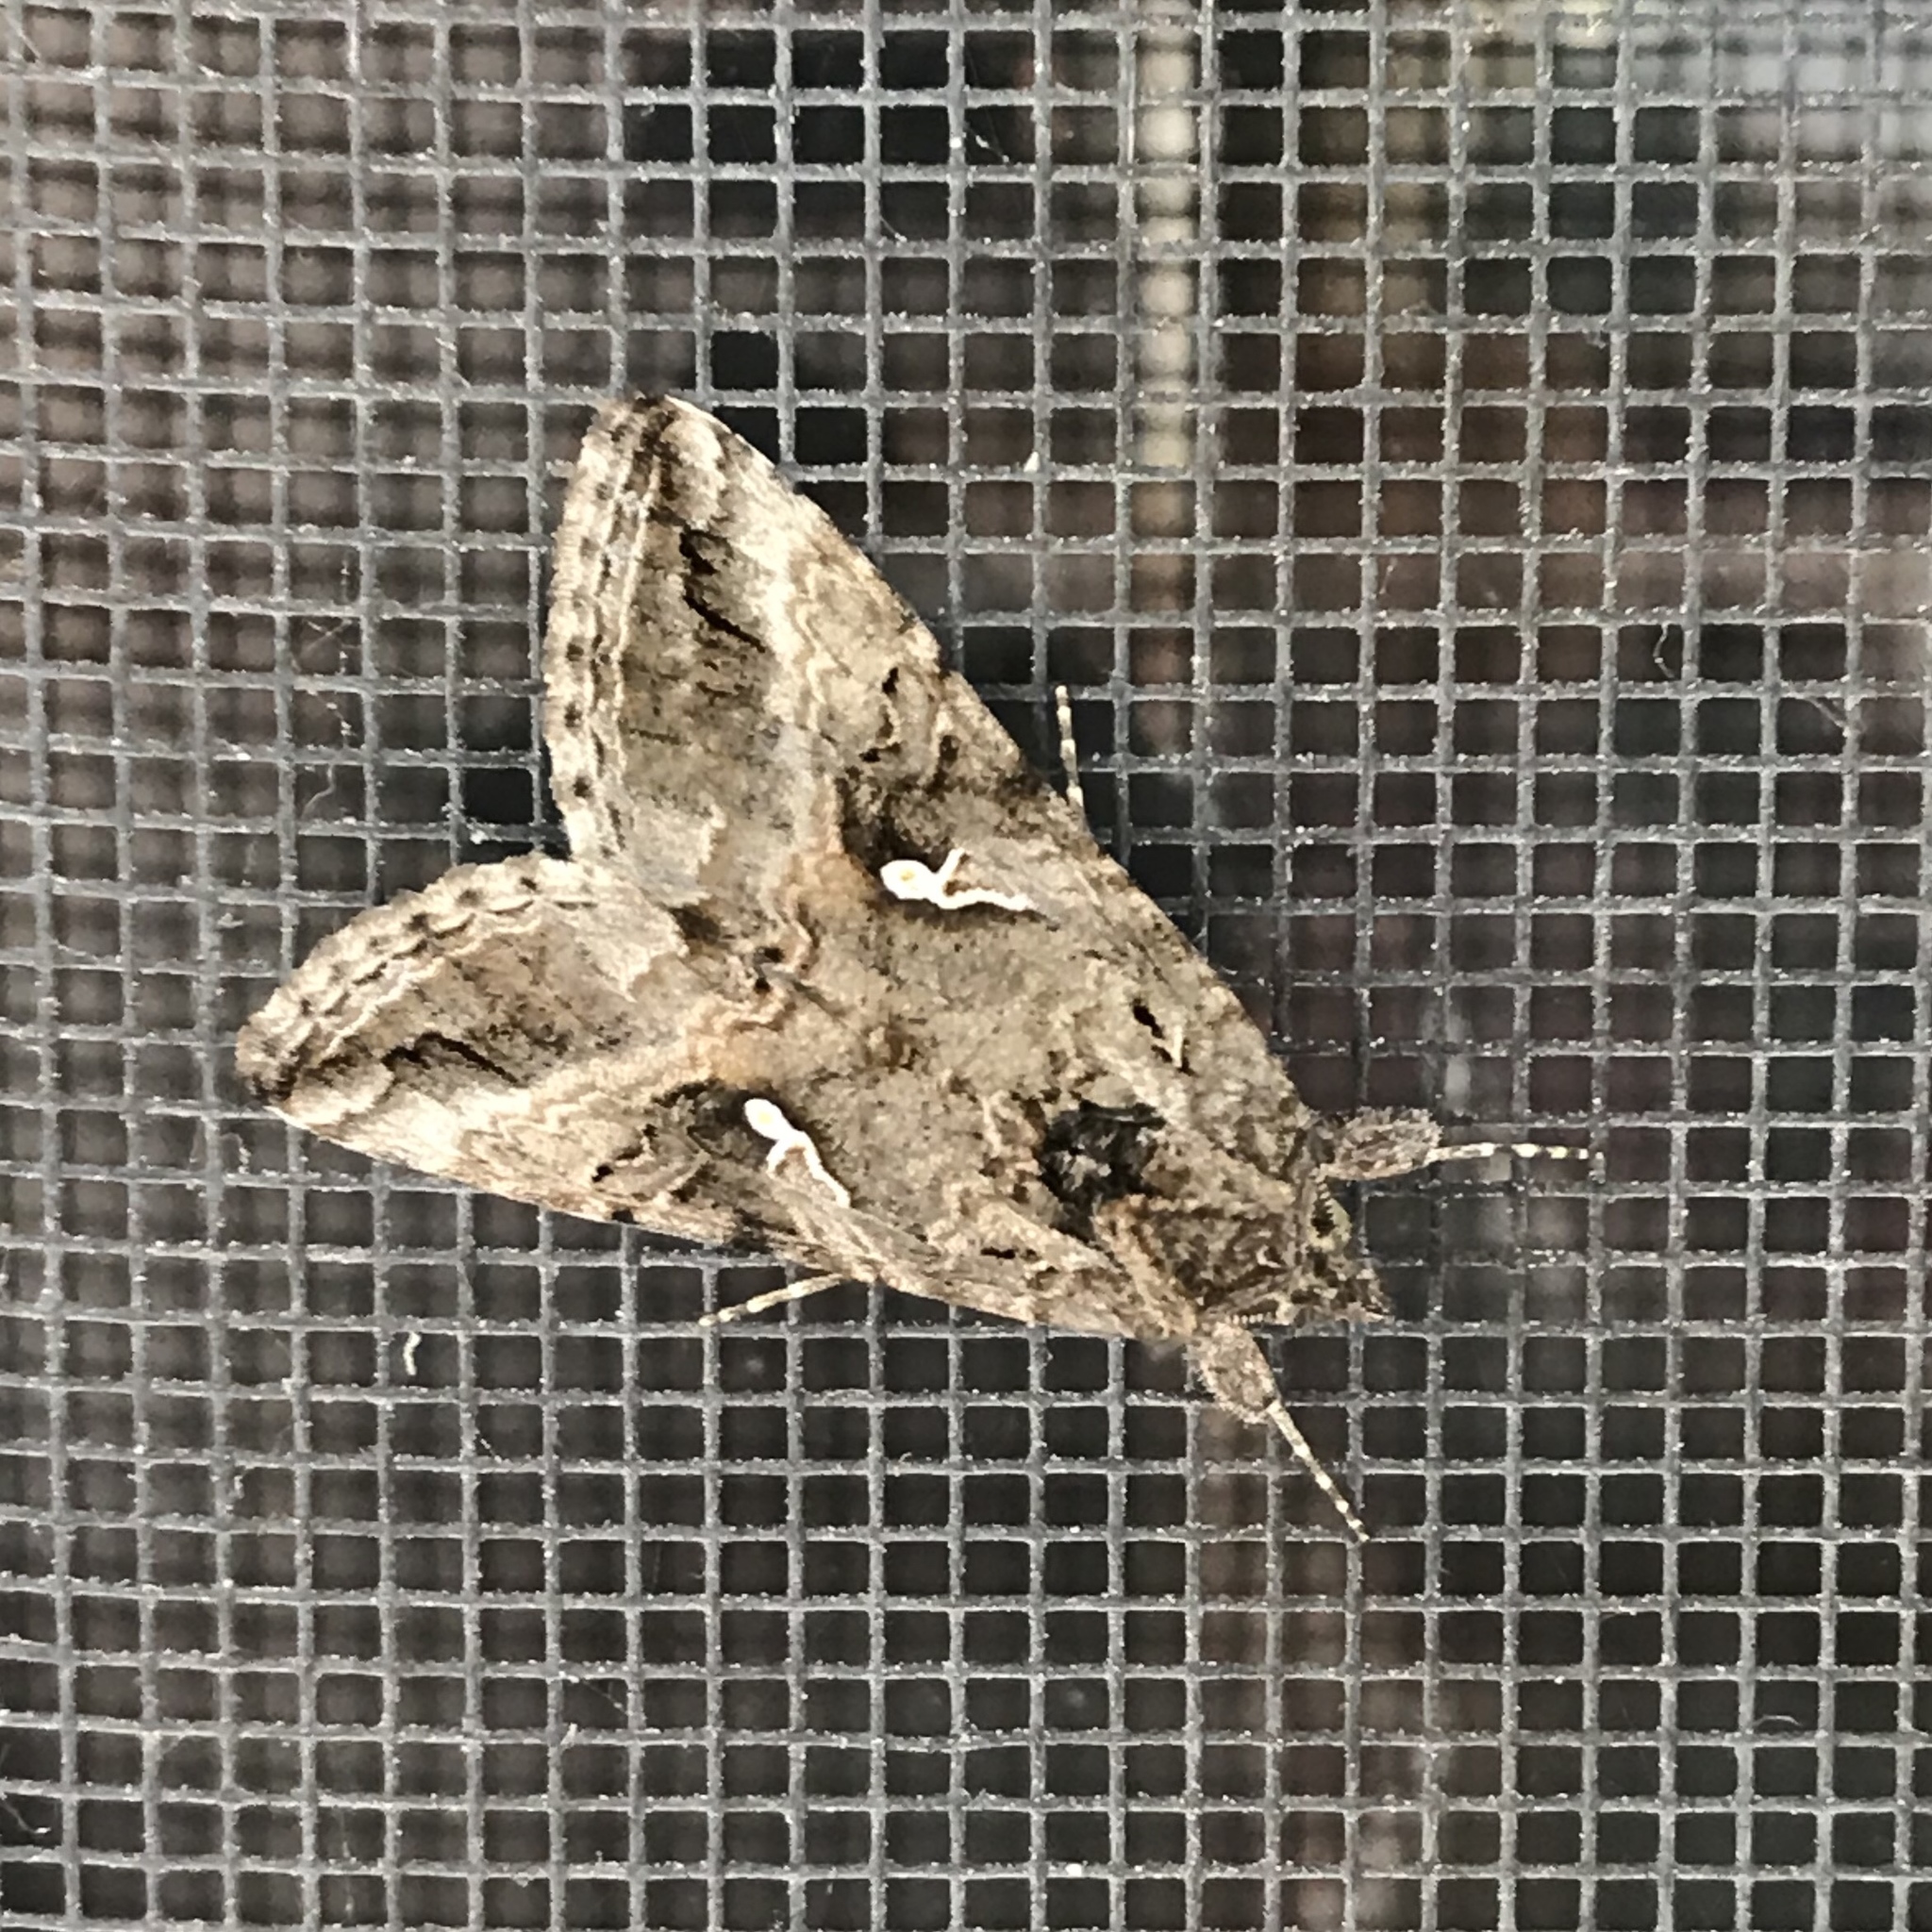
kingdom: Animalia
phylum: Arthropoda
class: Insecta
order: Lepidoptera
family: Noctuidae
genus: Rachiplusia
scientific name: Rachiplusia ou
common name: Gray looper moth
